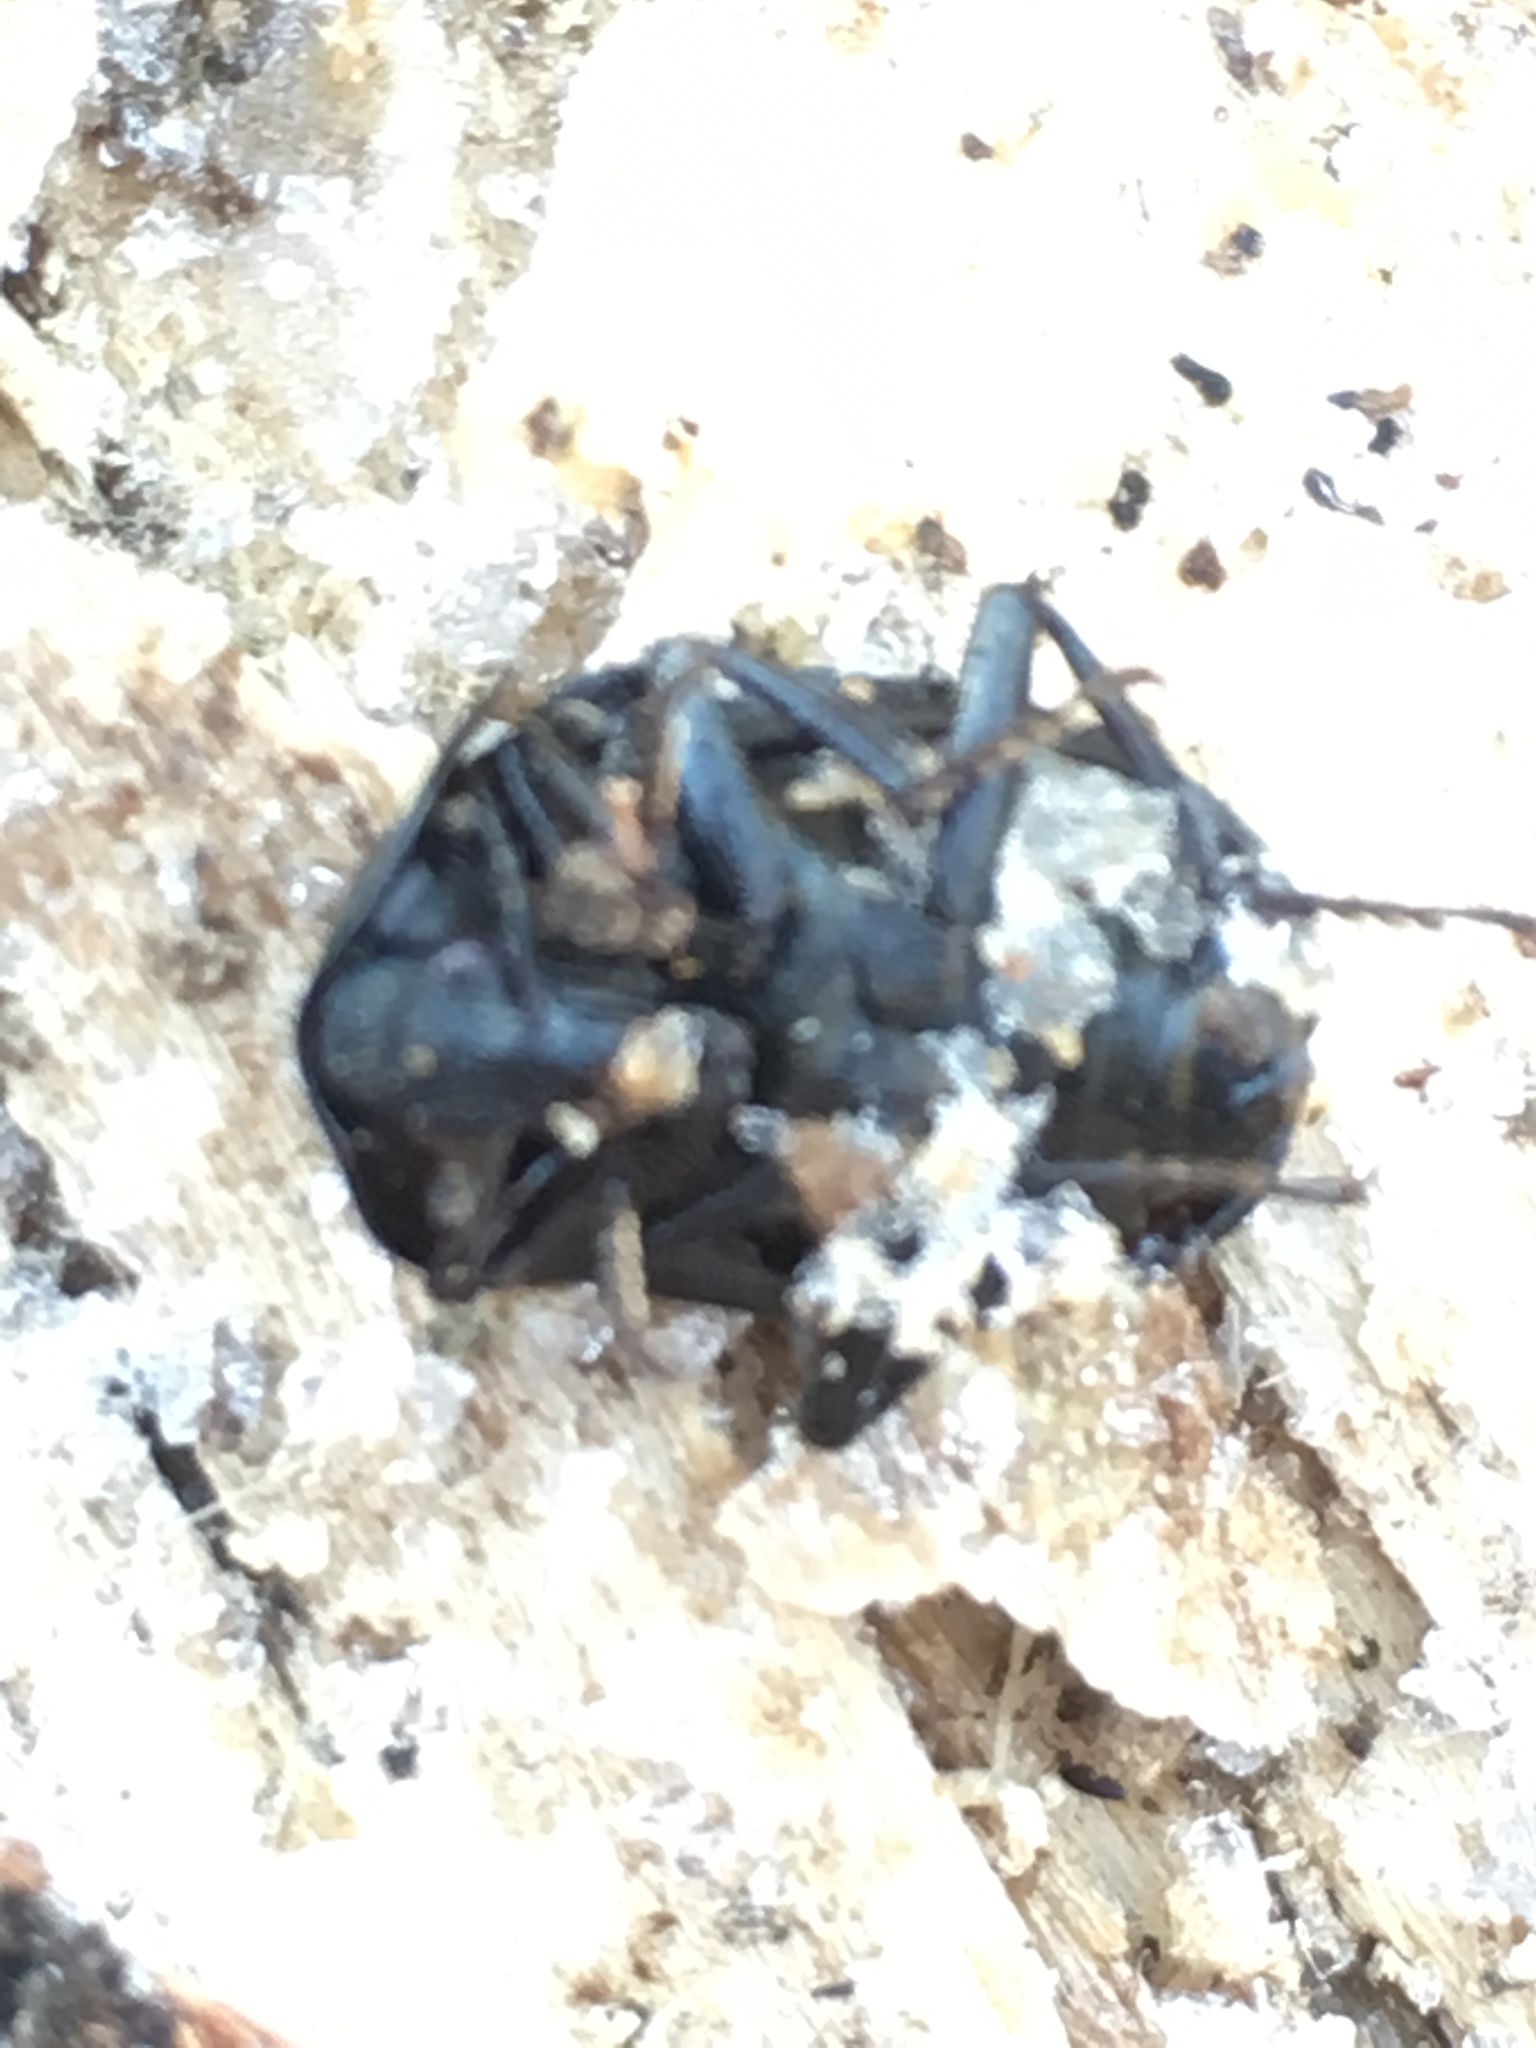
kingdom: Animalia
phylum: Arthropoda
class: Insecta
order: Coleoptera
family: Staphylinidae
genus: Silpha
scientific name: Silpha atrata
